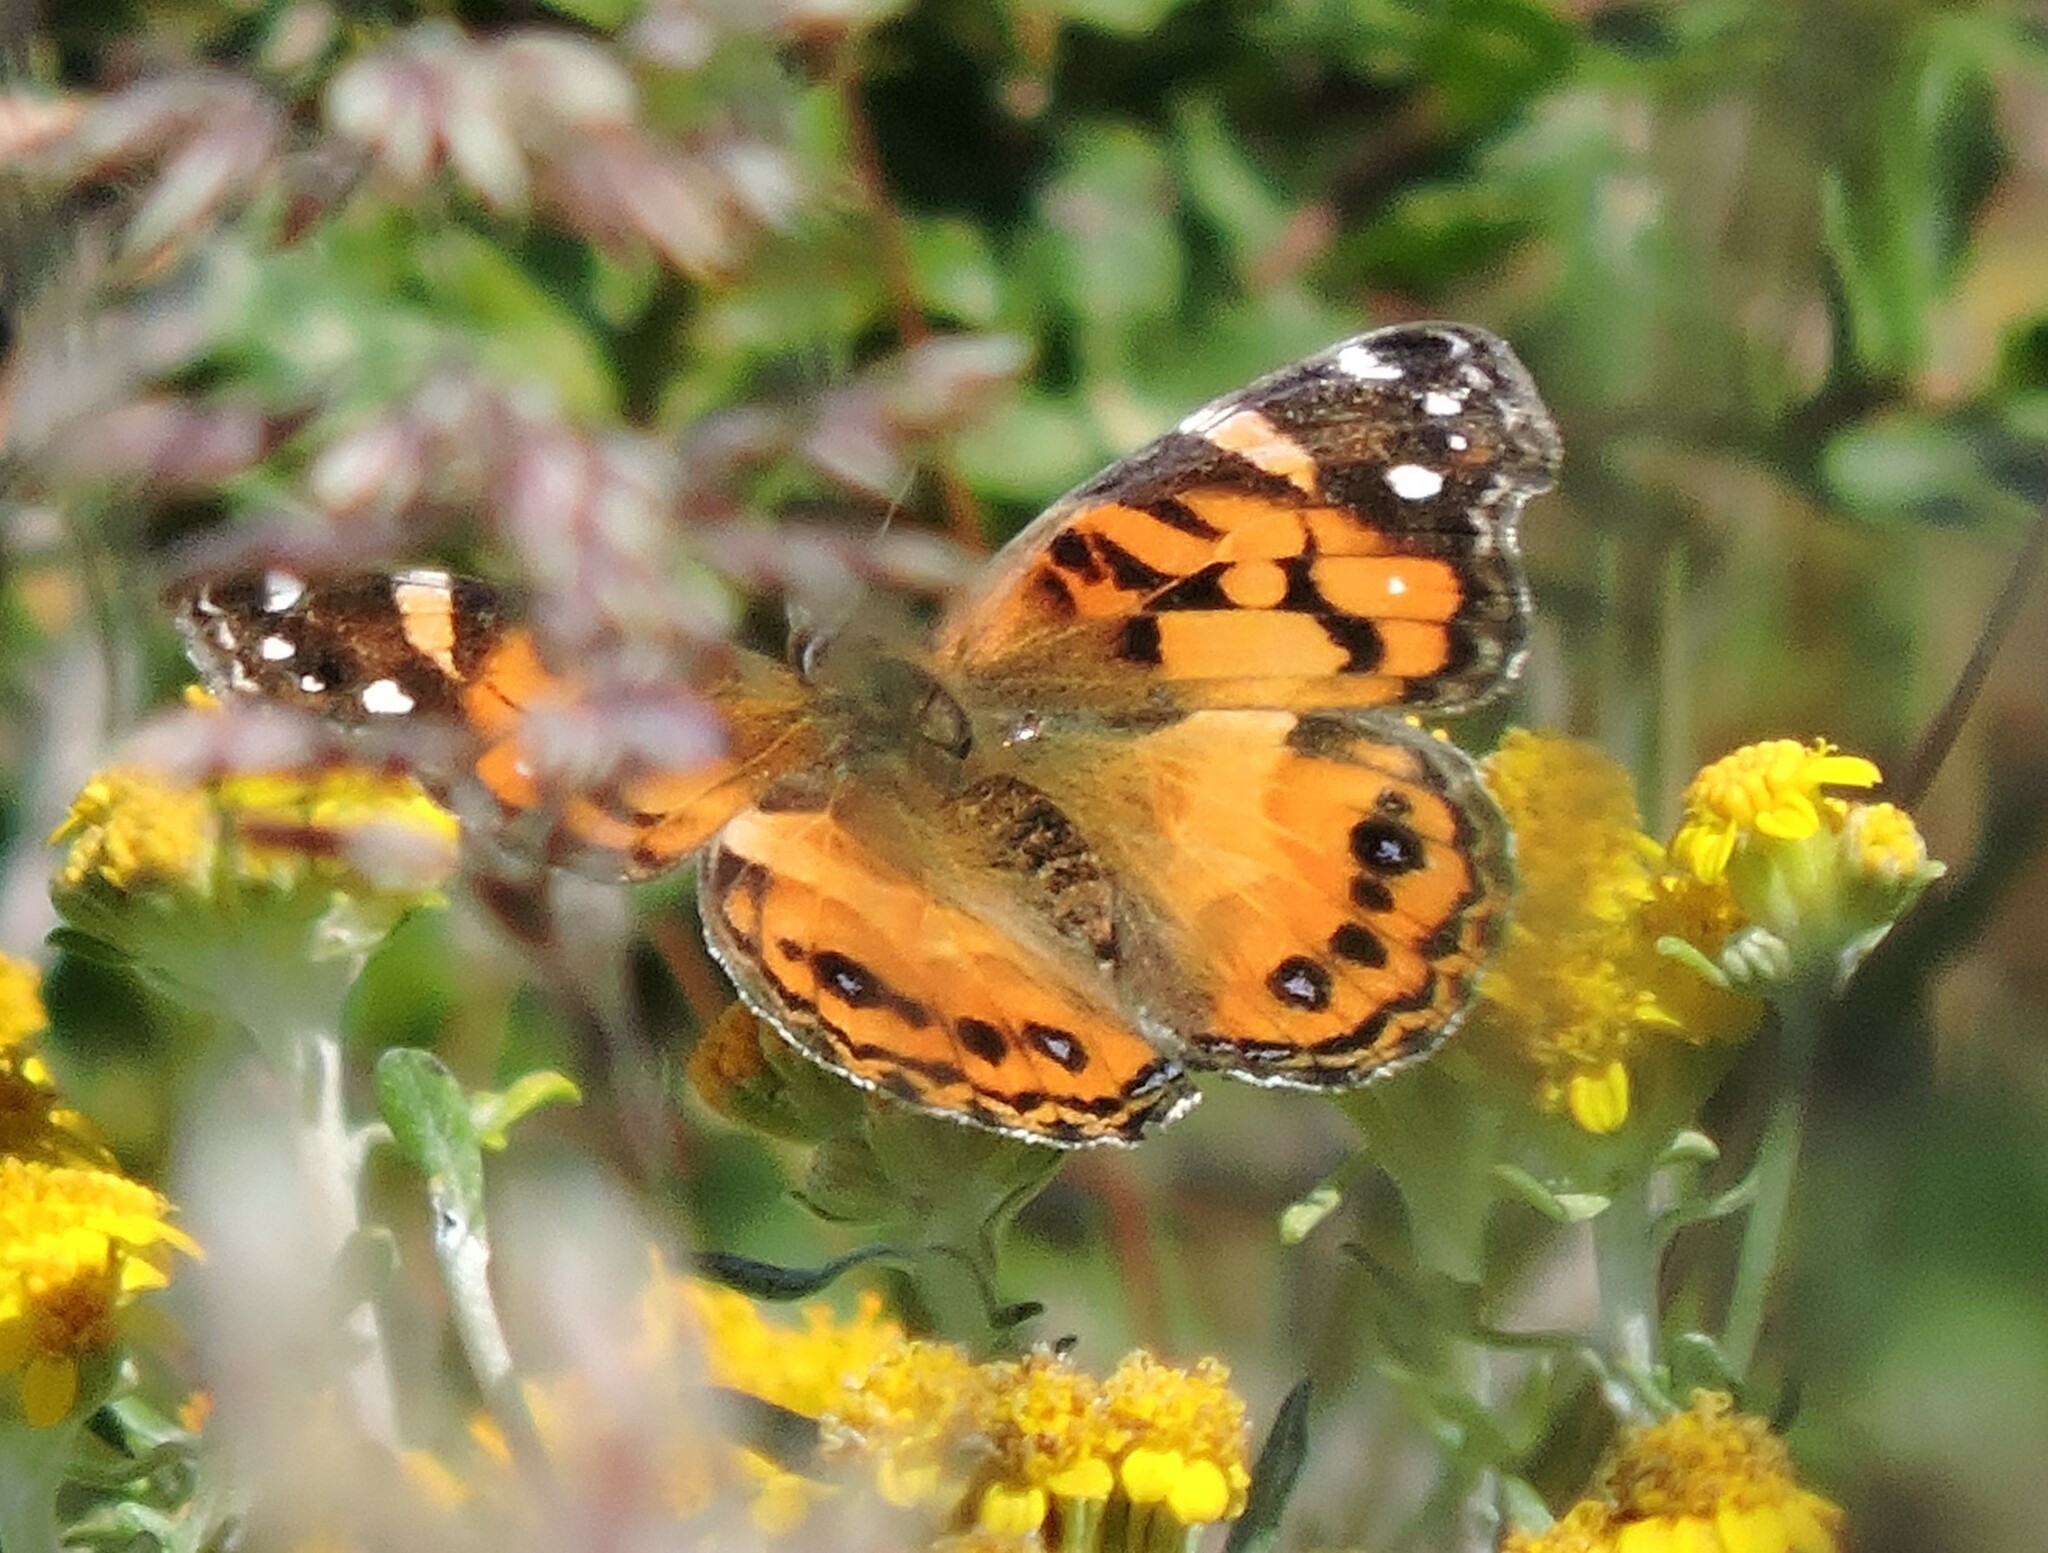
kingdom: Animalia
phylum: Arthropoda
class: Insecta
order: Lepidoptera
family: Nymphalidae
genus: Vanessa
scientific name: Vanessa virginiensis
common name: American lady
